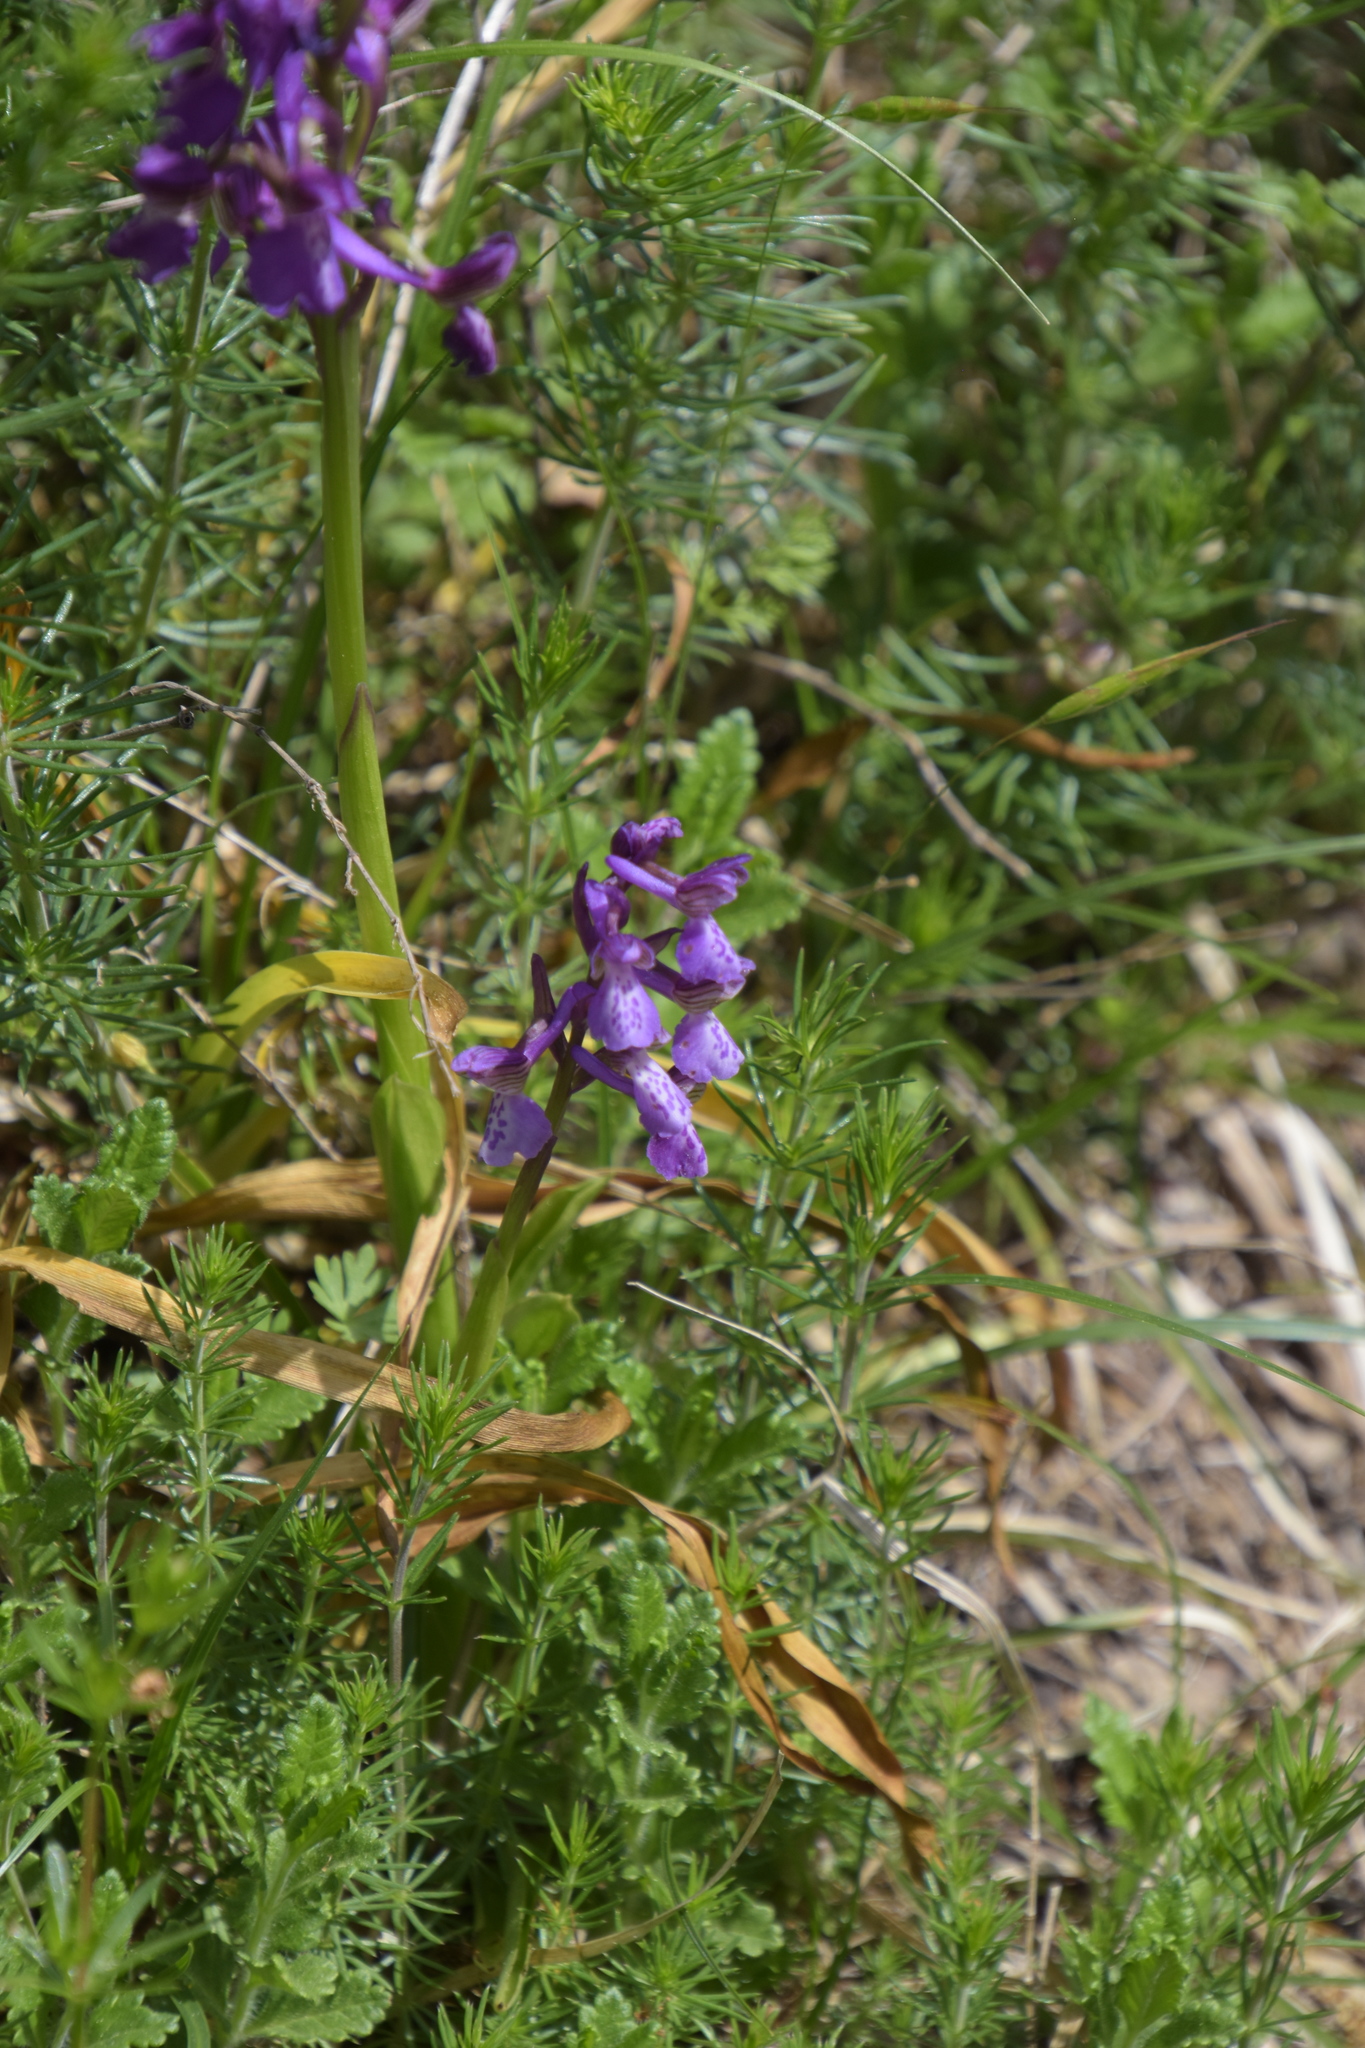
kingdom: Plantae
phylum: Tracheophyta
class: Liliopsida
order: Asparagales
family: Orchidaceae
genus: Anacamptis
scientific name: Anacamptis morio
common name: Green-winged orchid
